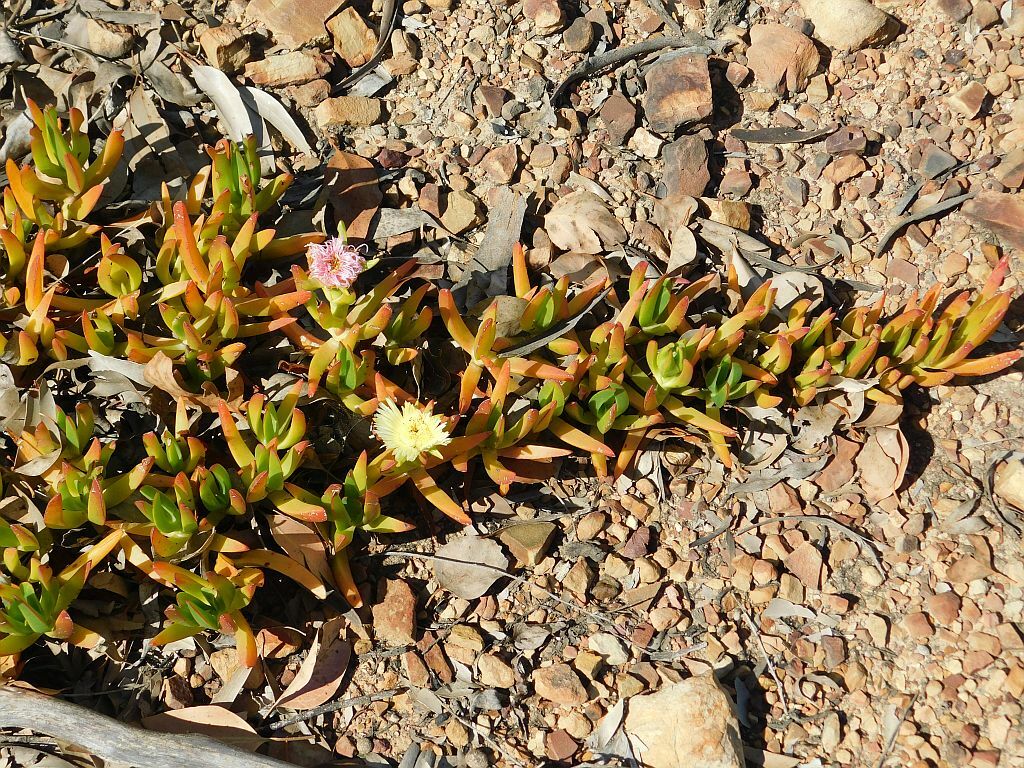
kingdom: Plantae
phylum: Tracheophyta
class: Magnoliopsida
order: Caryophyllales
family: Aizoaceae
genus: Carpobrotus
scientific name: Carpobrotus edulis
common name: Hottentot-fig
